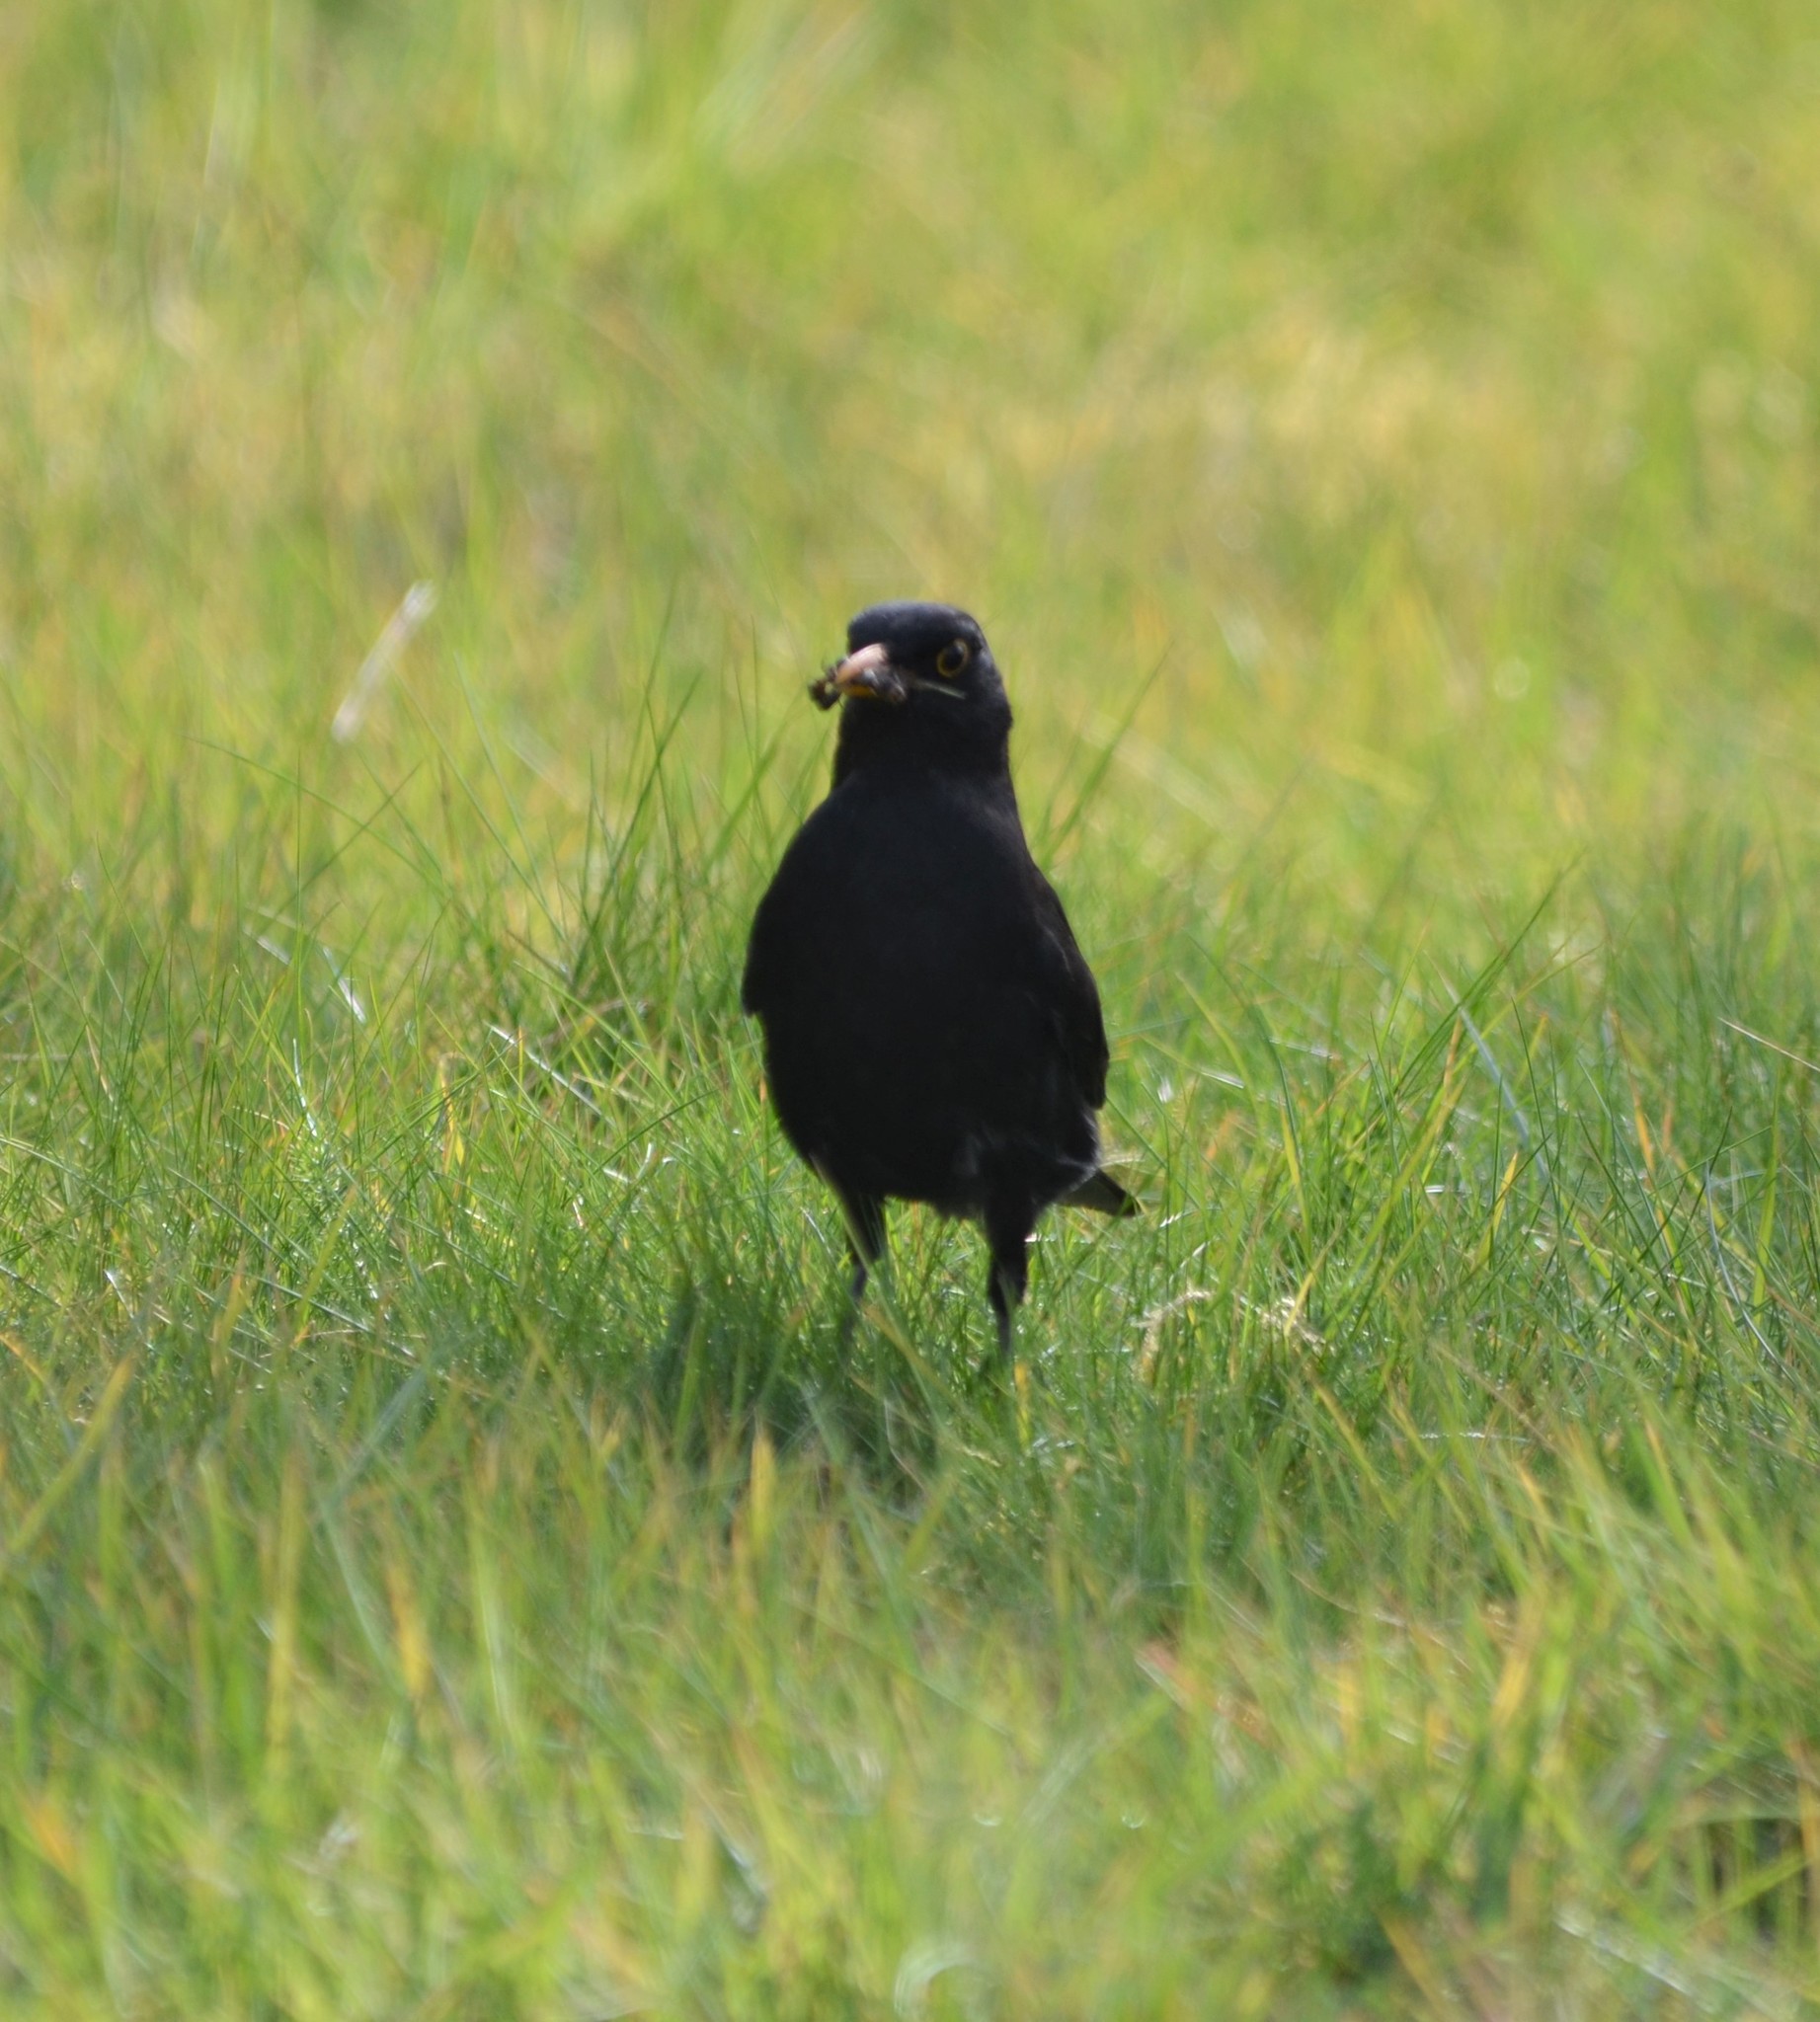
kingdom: Animalia
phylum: Chordata
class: Aves
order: Passeriformes
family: Turdidae
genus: Turdus
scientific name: Turdus merula
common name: Common blackbird
